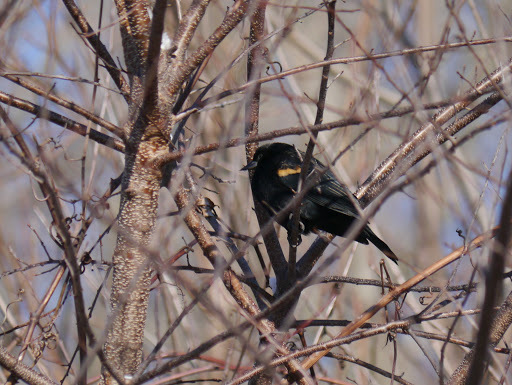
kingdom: Animalia
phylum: Chordata
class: Aves
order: Passeriformes
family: Icteridae
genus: Agelaius
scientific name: Agelaius phoeniceus
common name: Red-winged blackbird
